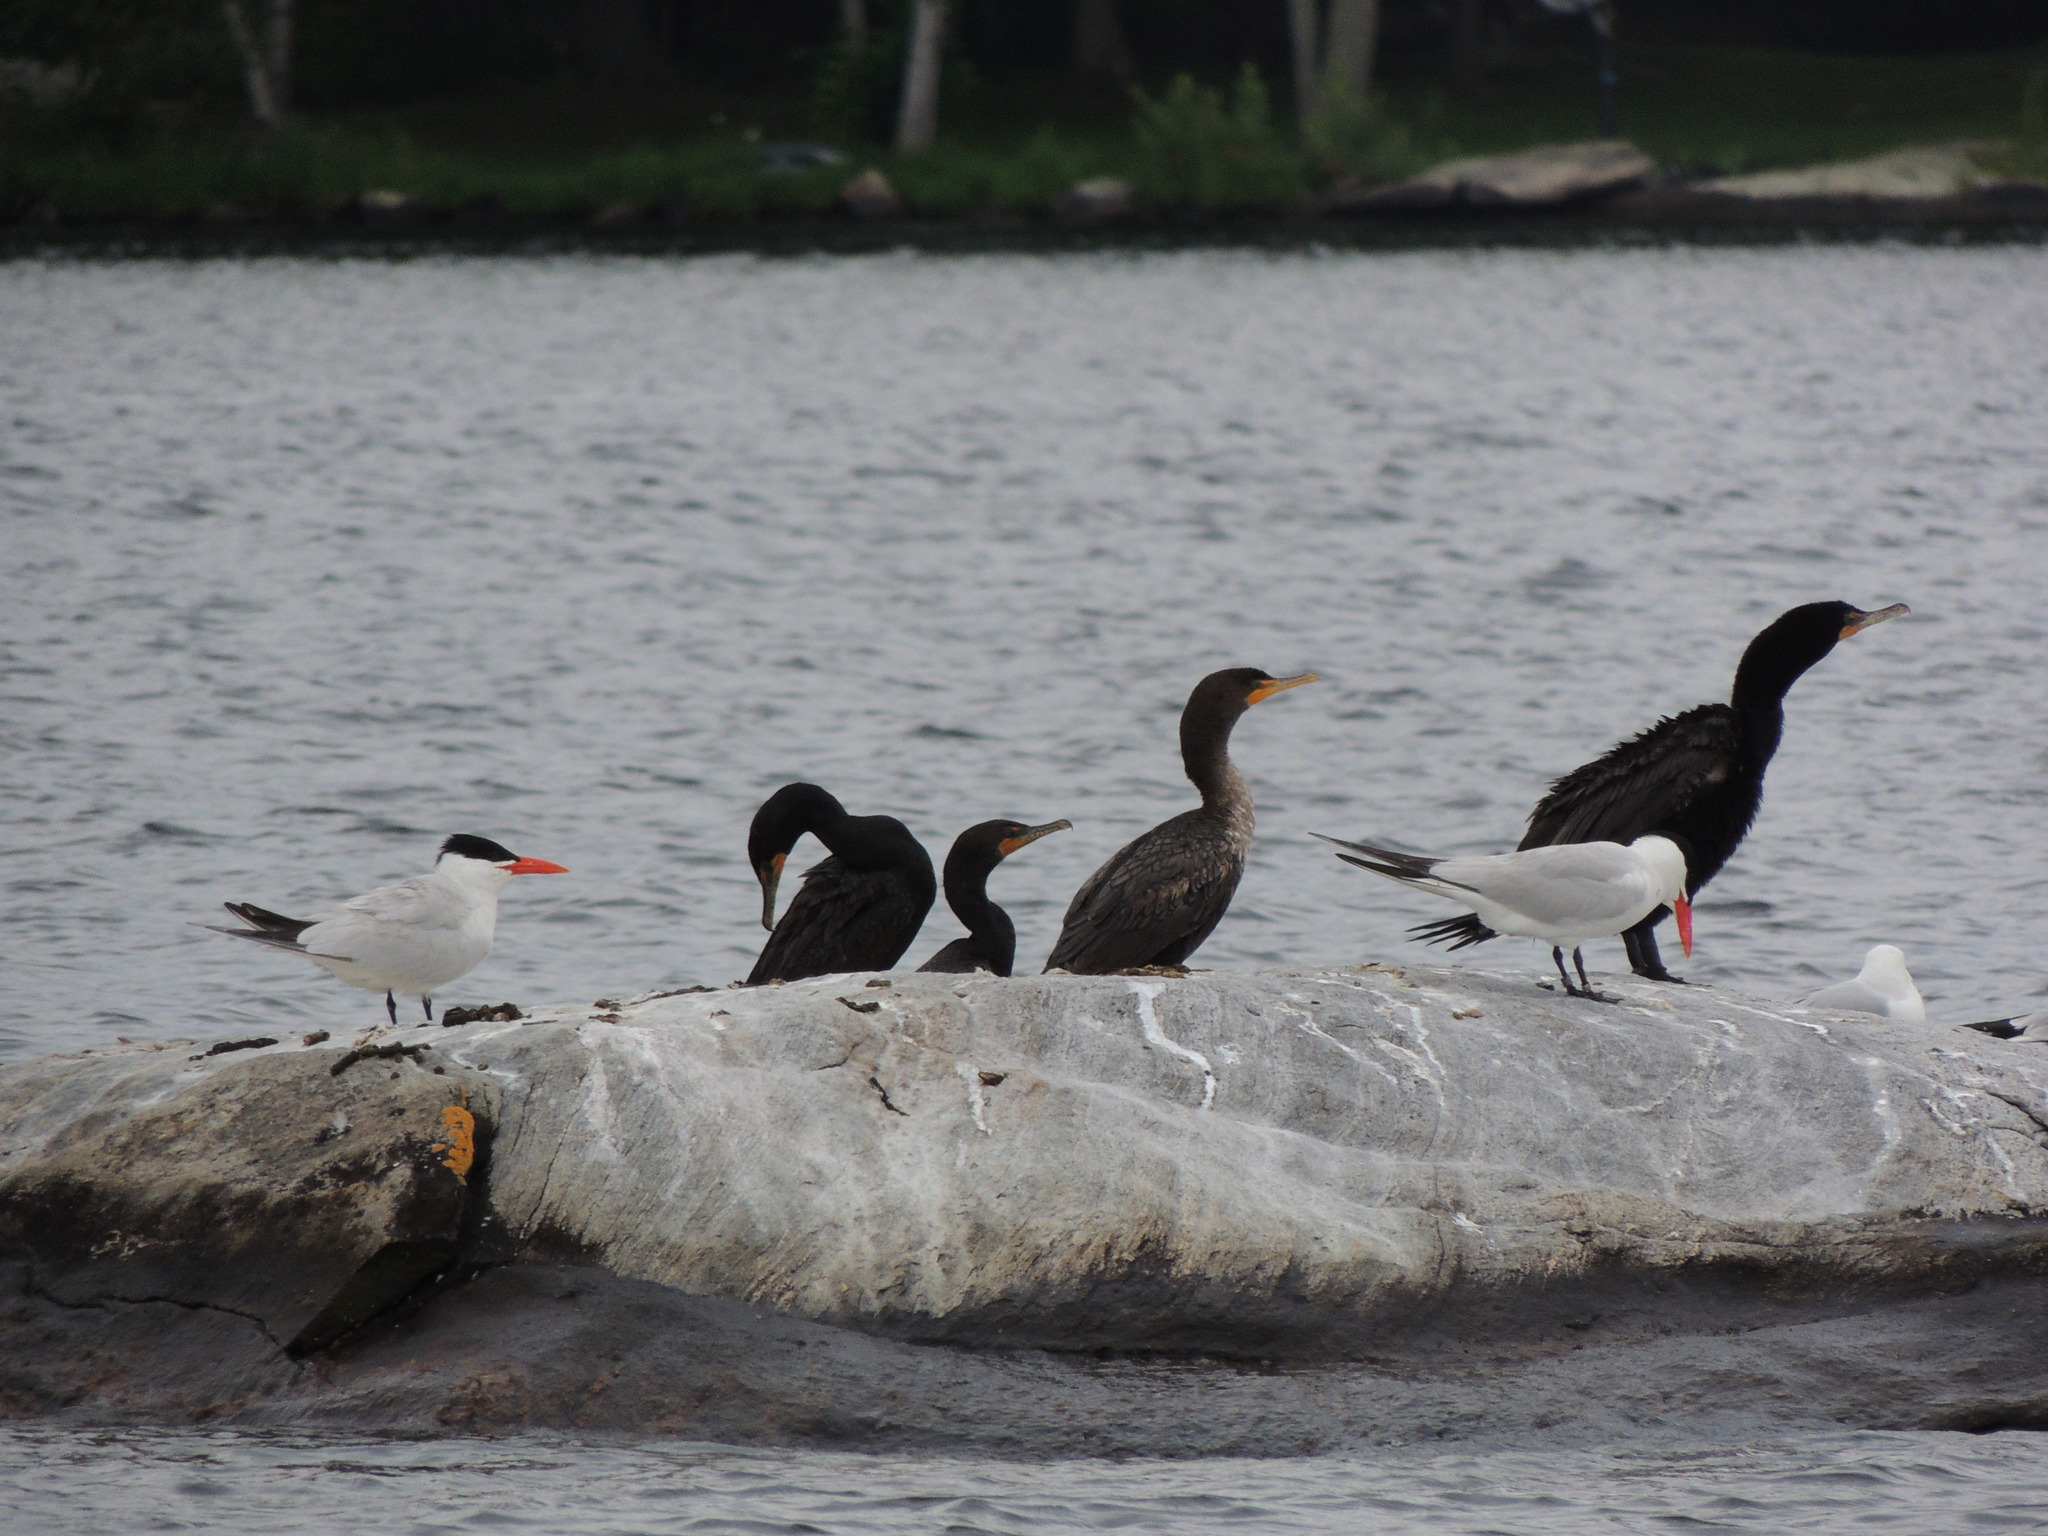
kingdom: Animalia
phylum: Chordata
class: Aves
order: Charadriiformes
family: Laridae
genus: Hydroprogne
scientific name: Hydroprogne caspia
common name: Caspian tern
